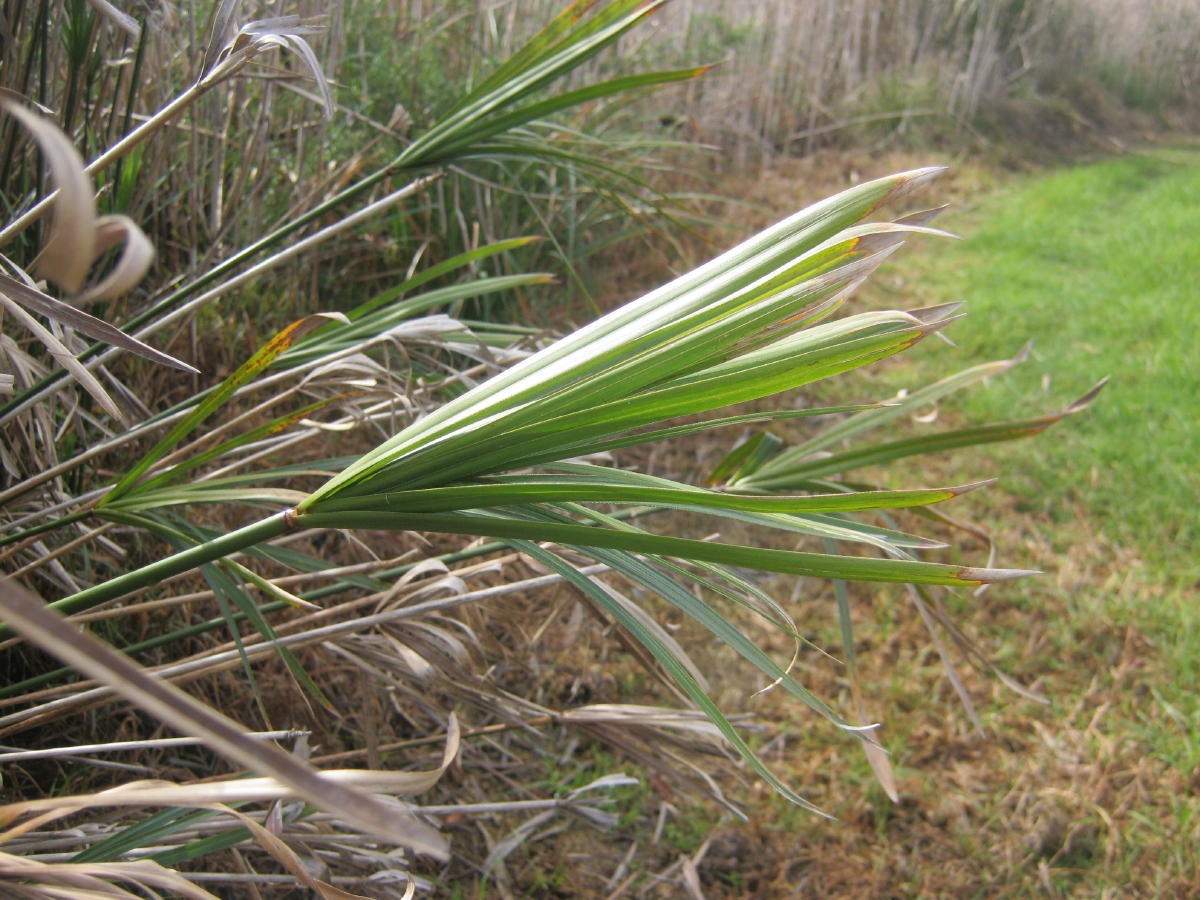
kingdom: Plantae
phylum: Tracheophyta
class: Liliopsida
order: Poales
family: Cyperaceae
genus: Cyperus
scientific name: Cyperus textilis
